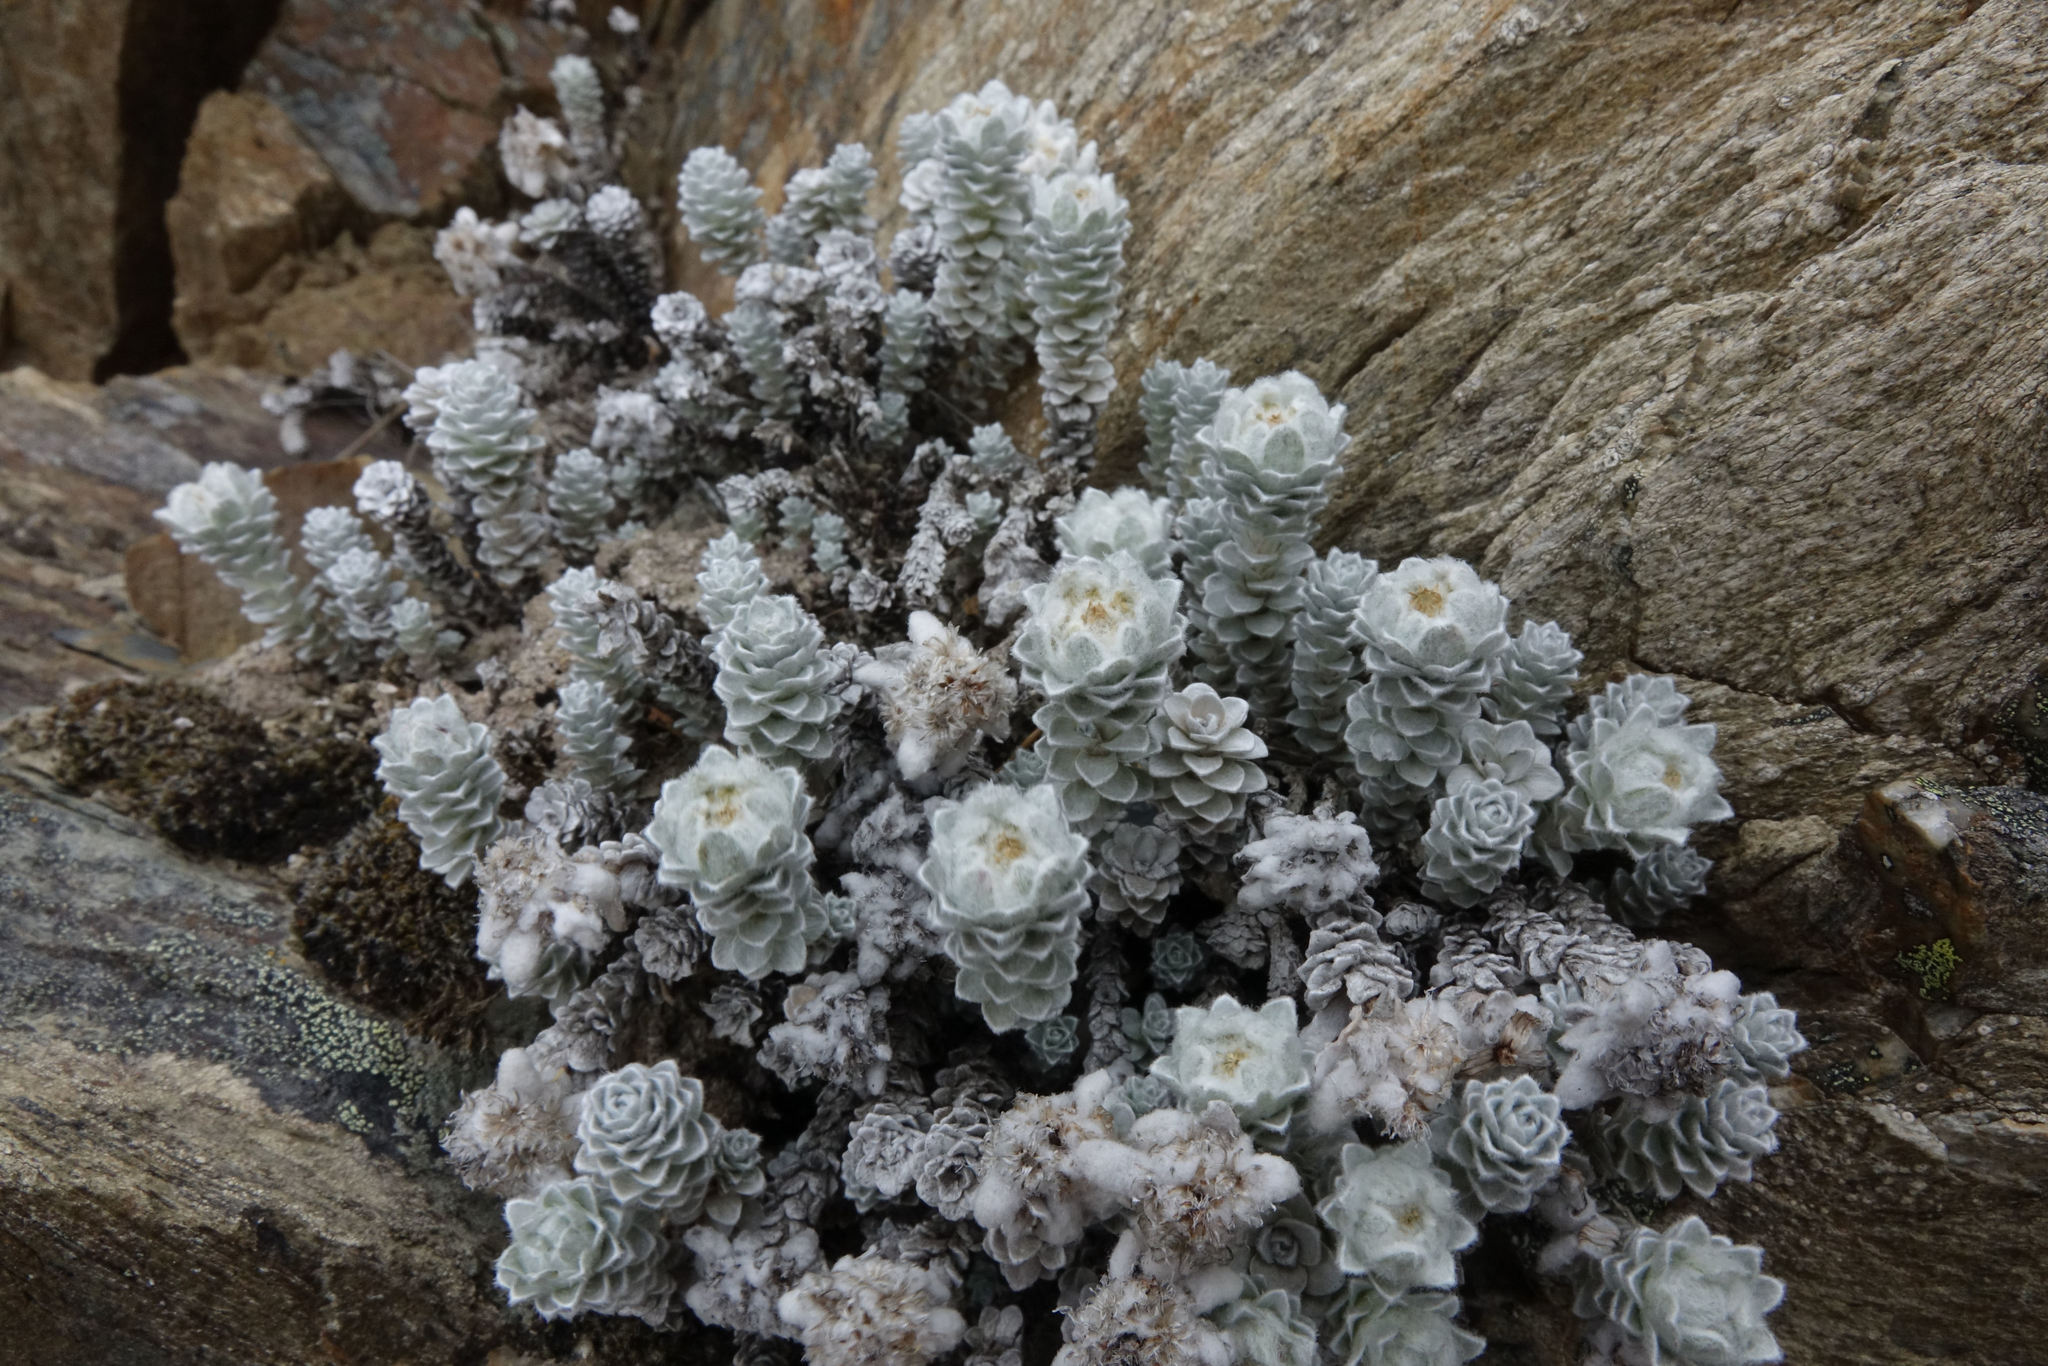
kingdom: Plantae
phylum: Tracheophyta
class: Magnoliopsida
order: Asterales
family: Asteraceae
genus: Leucogenes
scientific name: Leucogenes grandiceps
